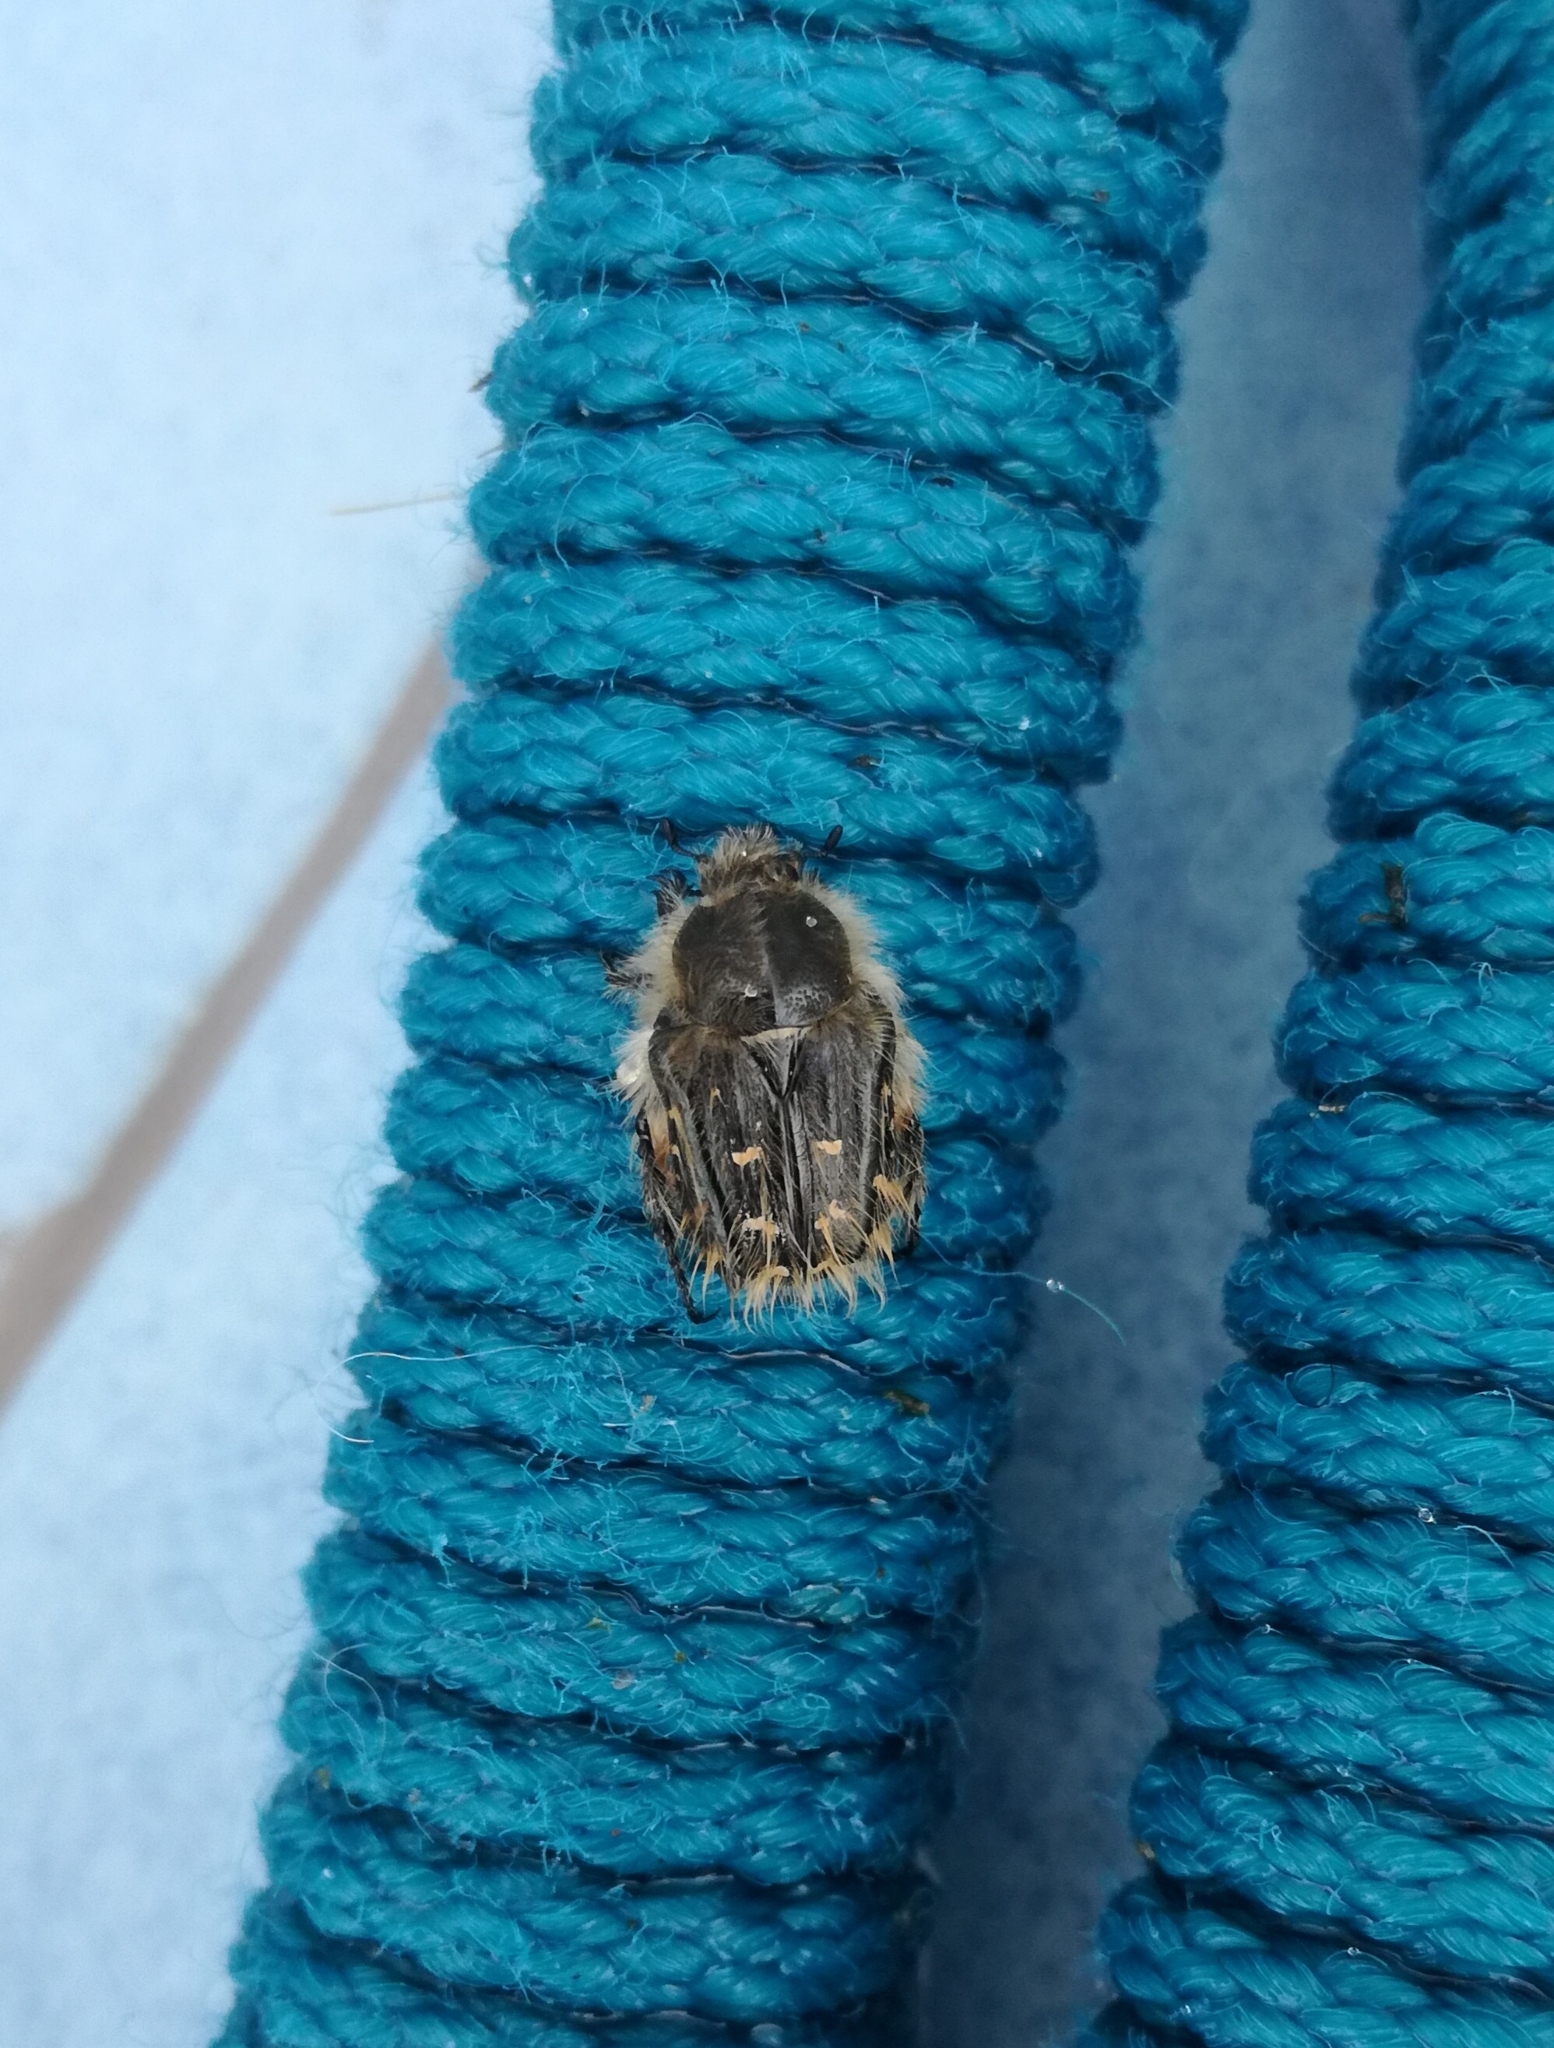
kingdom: Animalia
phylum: Arthropoda
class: Insecta
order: Coleoptera
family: Scarabaeidae
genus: Tropinota
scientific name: Tropinota squalida
